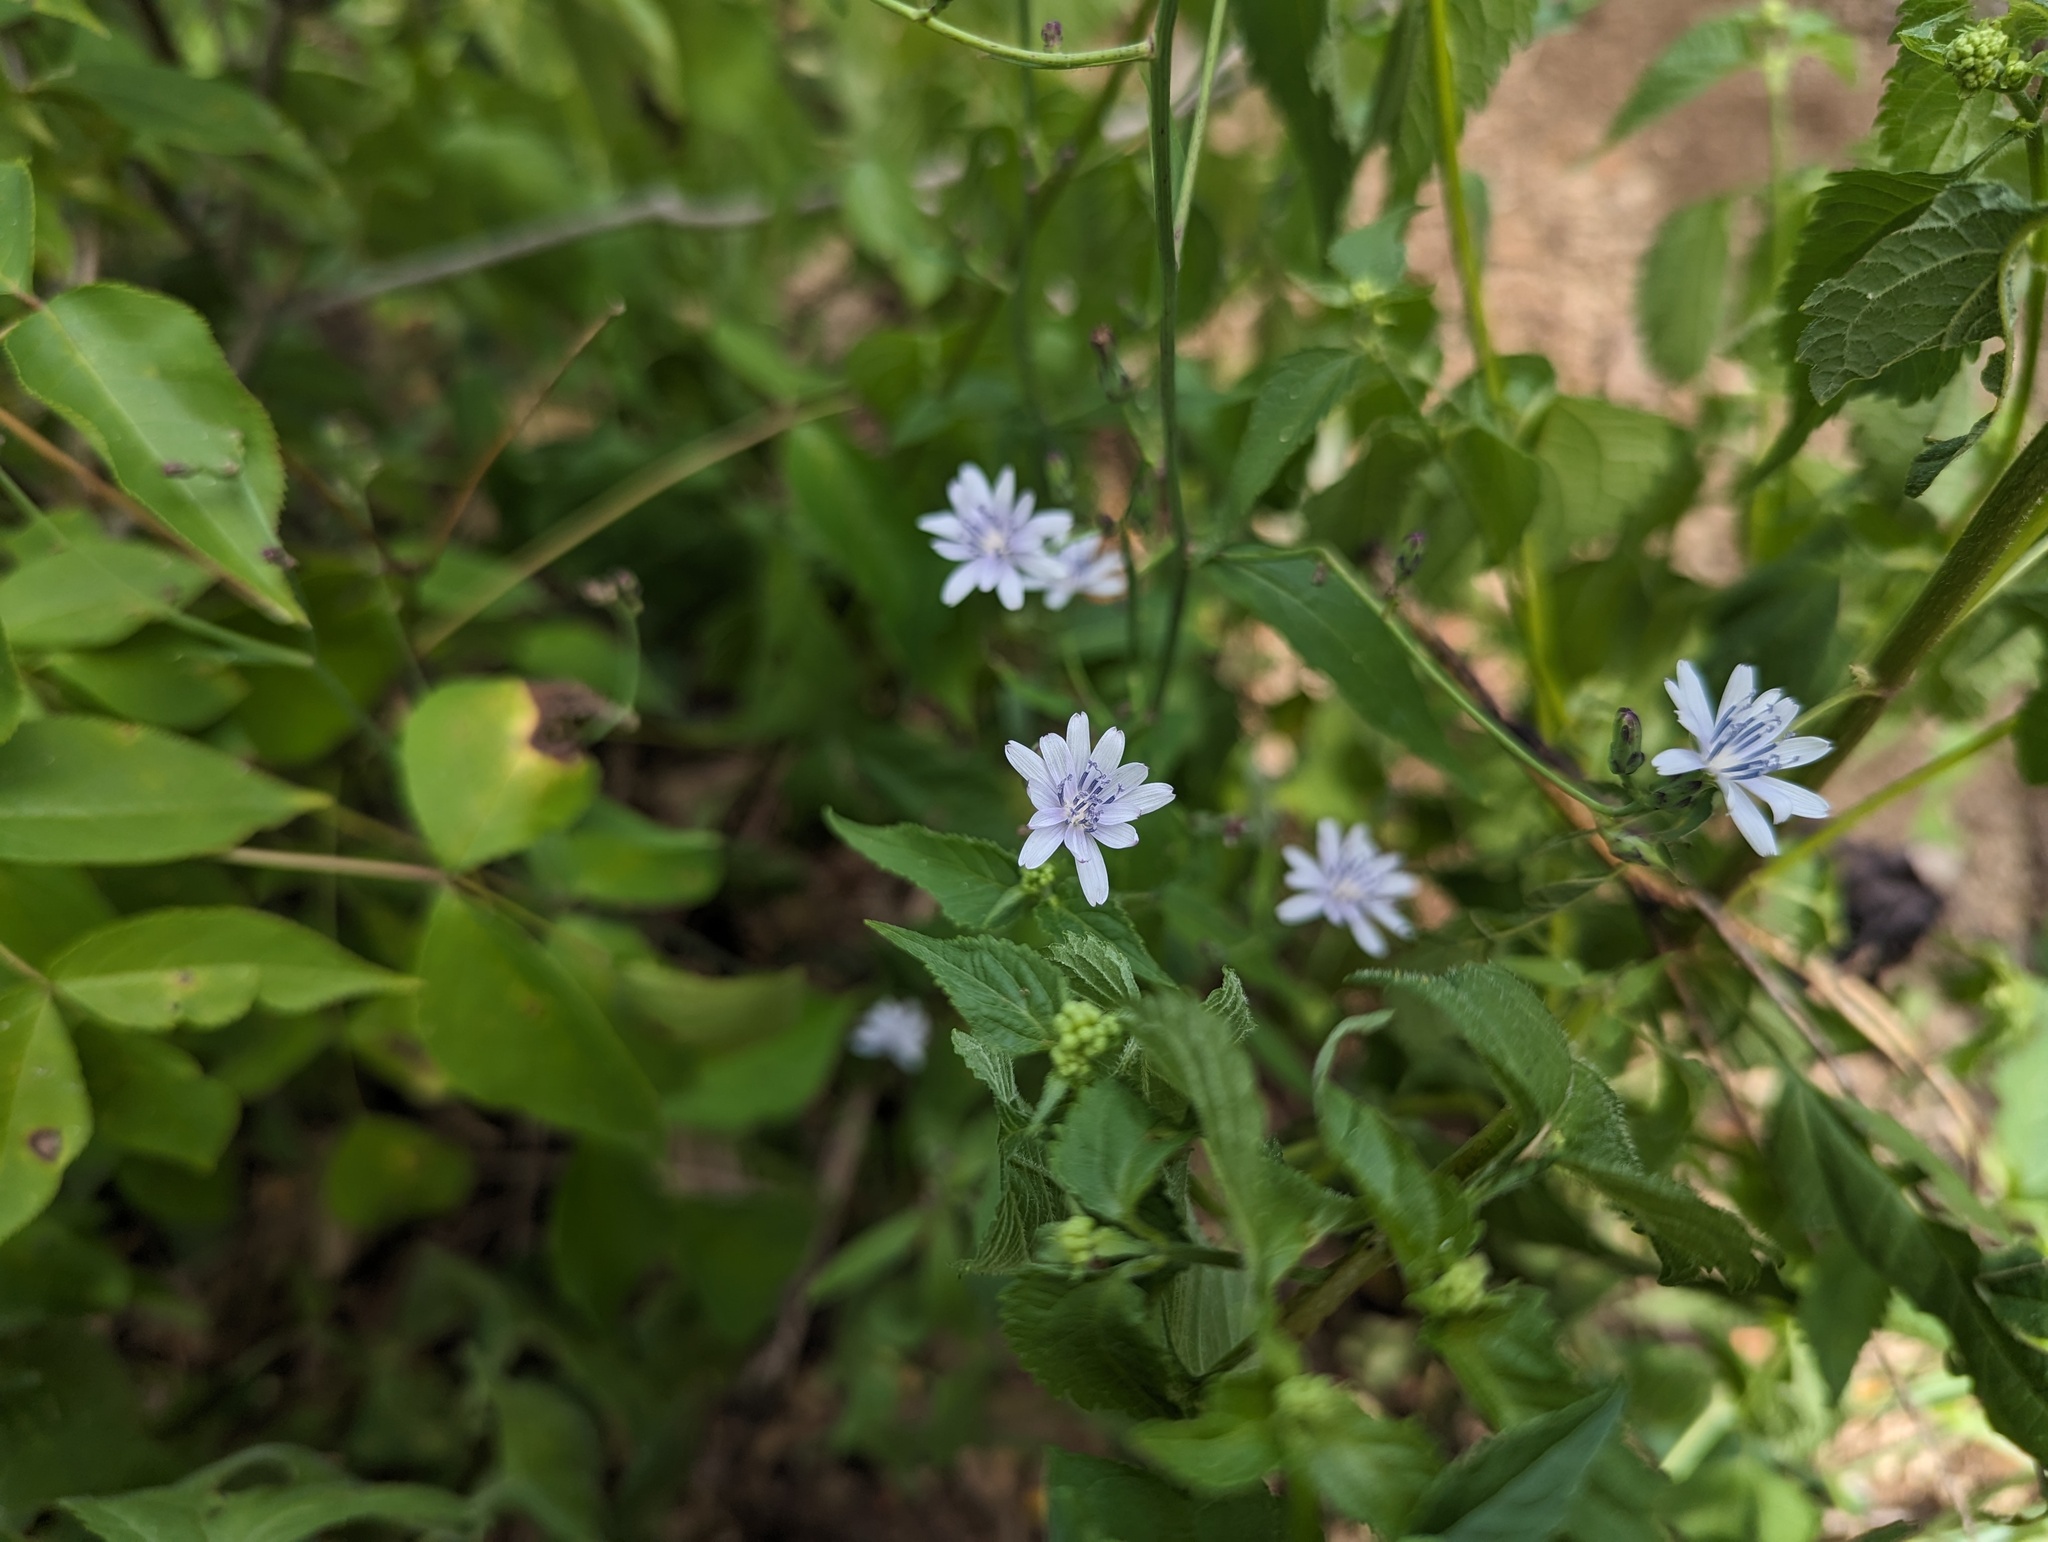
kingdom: Plantae
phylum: Tracheophyta
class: Magnoliopsida
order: Asterales
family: Asteraceae
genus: Lactuca
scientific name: Lactuca floridana
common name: Woodland lettuce
